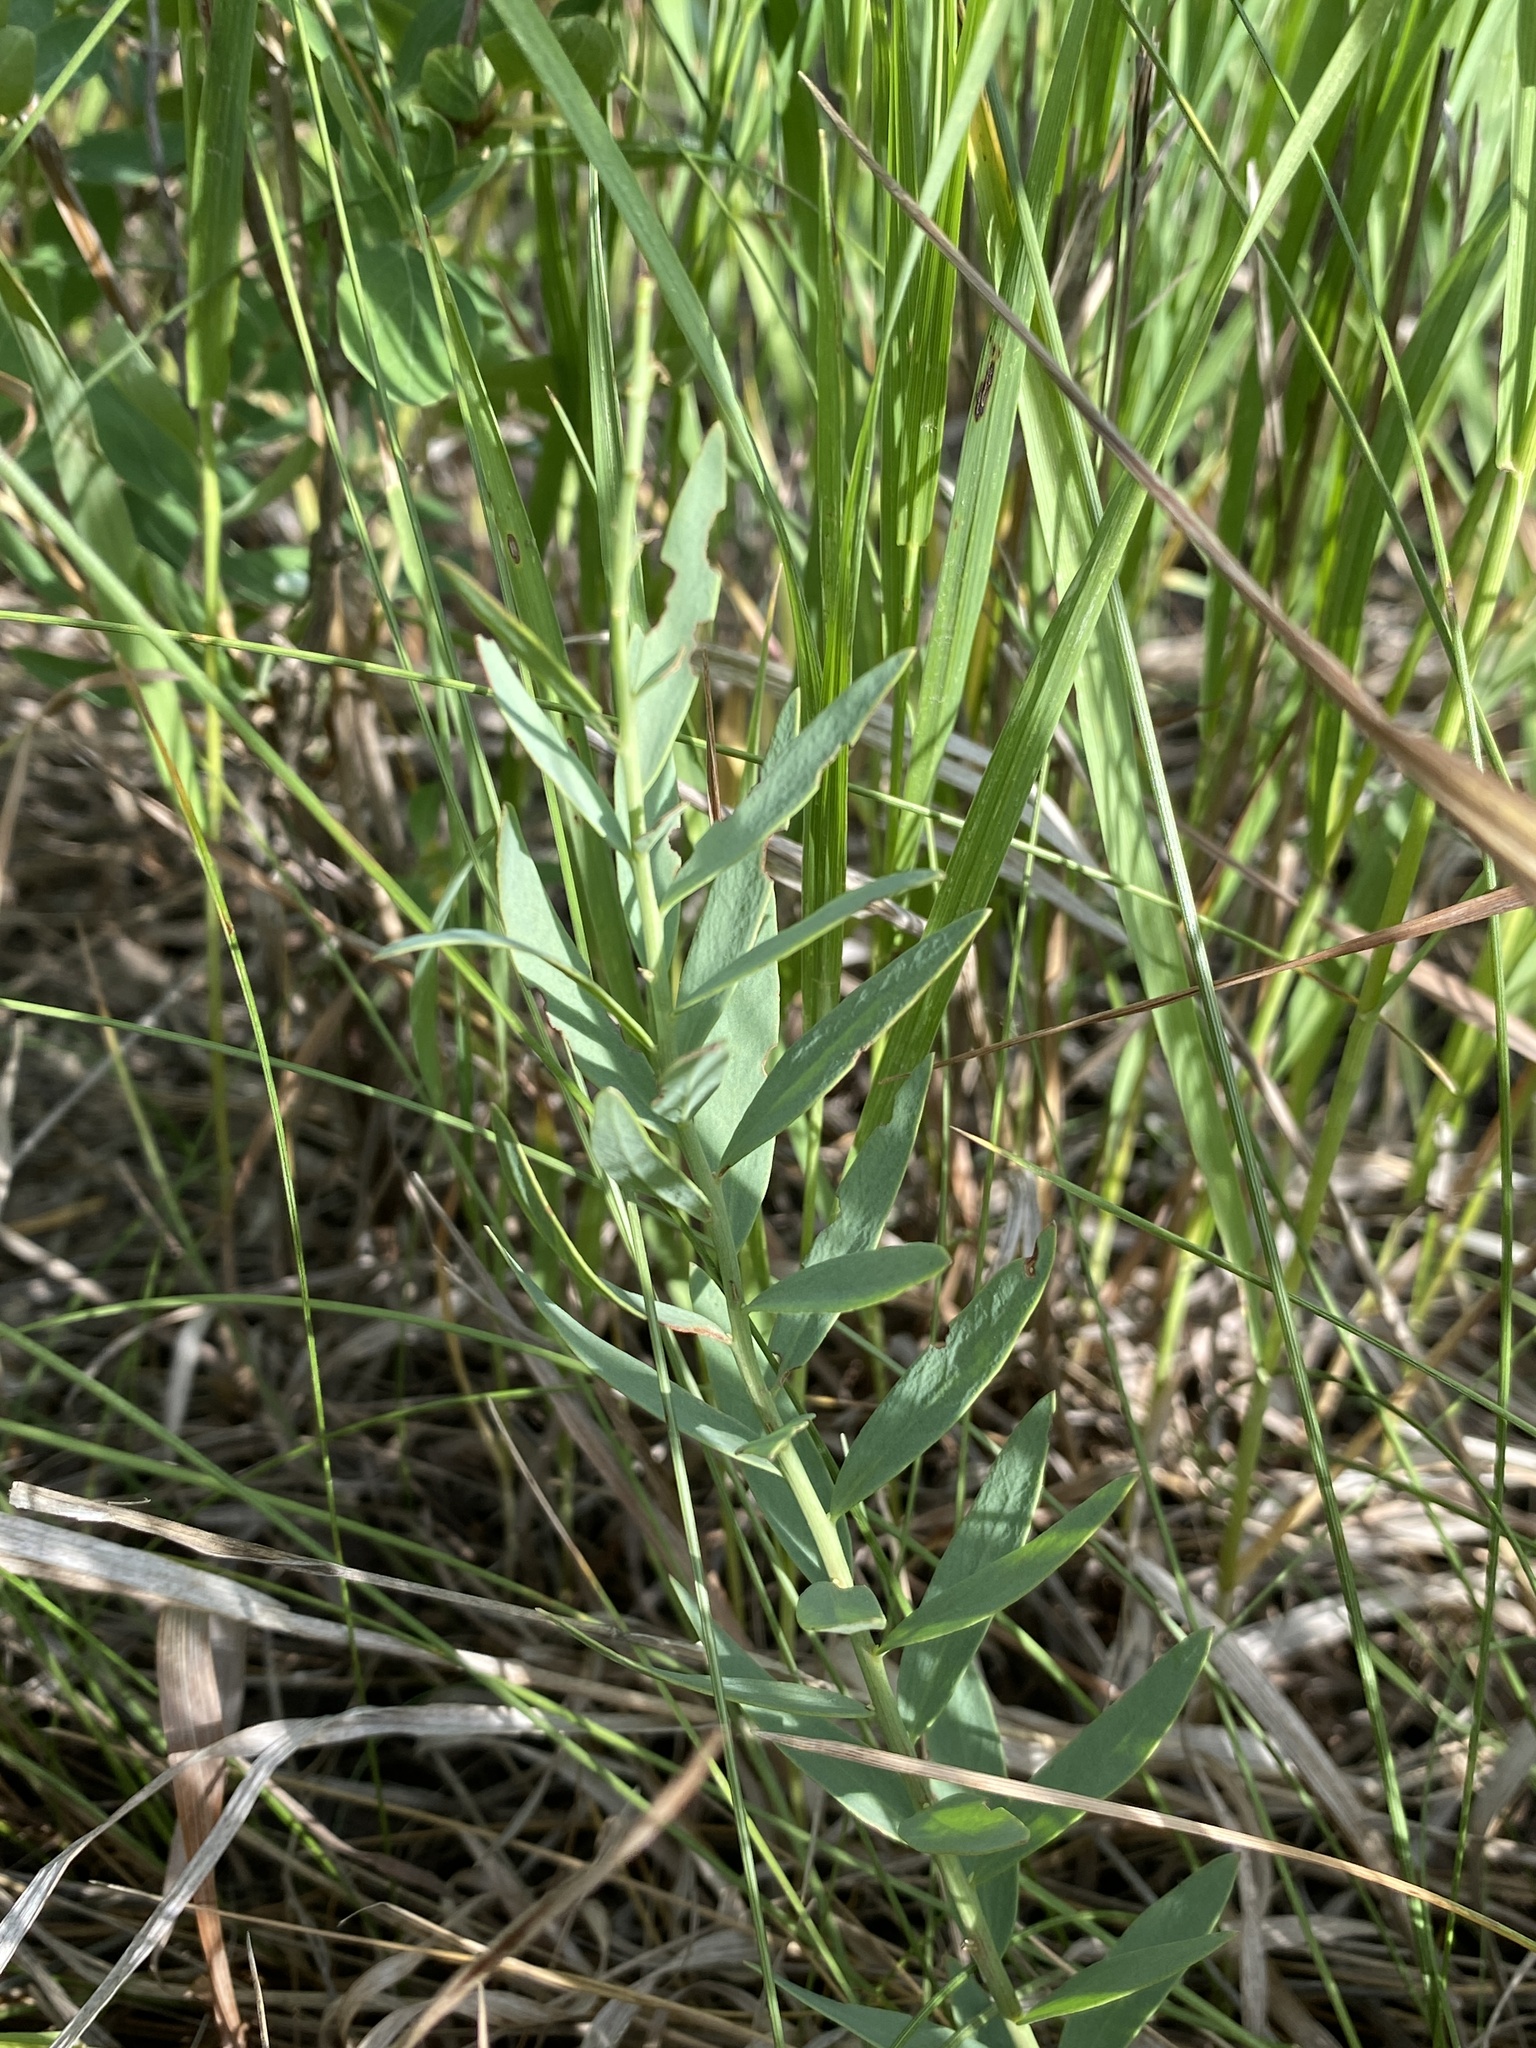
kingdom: Plantae
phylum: Tracheophyta
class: Magnoliopsida
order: Santalales
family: Comandraceae
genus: Comandra
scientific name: Comandra umbellata
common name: Bastard toadflax
